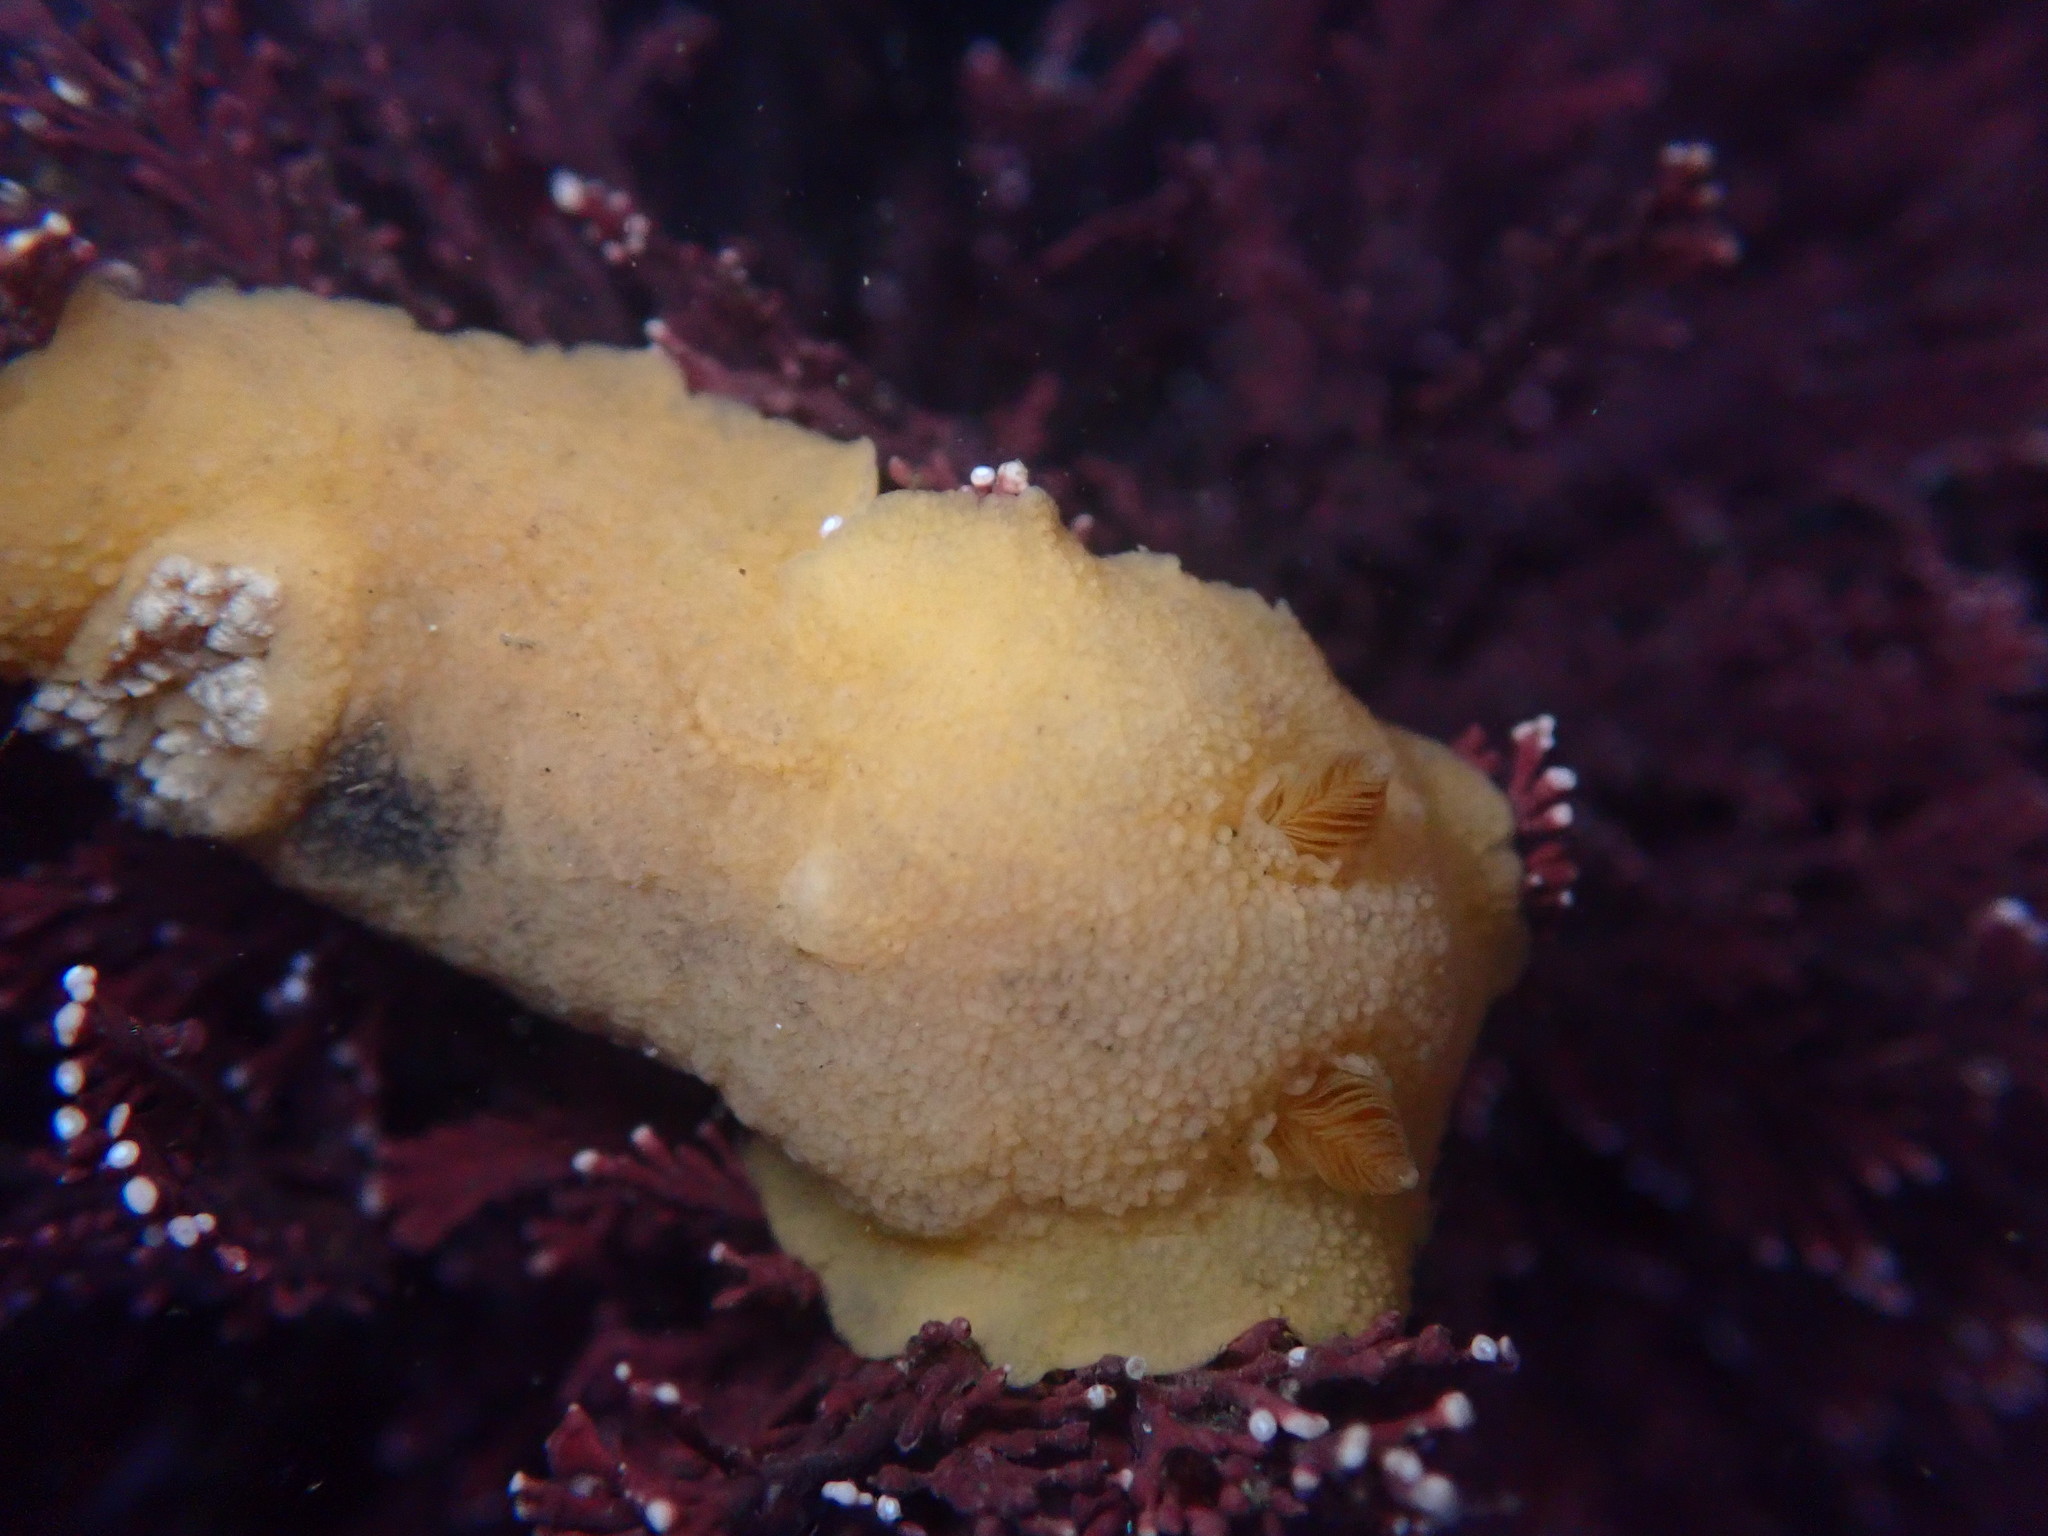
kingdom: Animalia
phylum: Mollusca
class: Gastropoda
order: Nudibranchia
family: Discodorididae
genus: Geitodoris
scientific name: Geitodoris heathi
